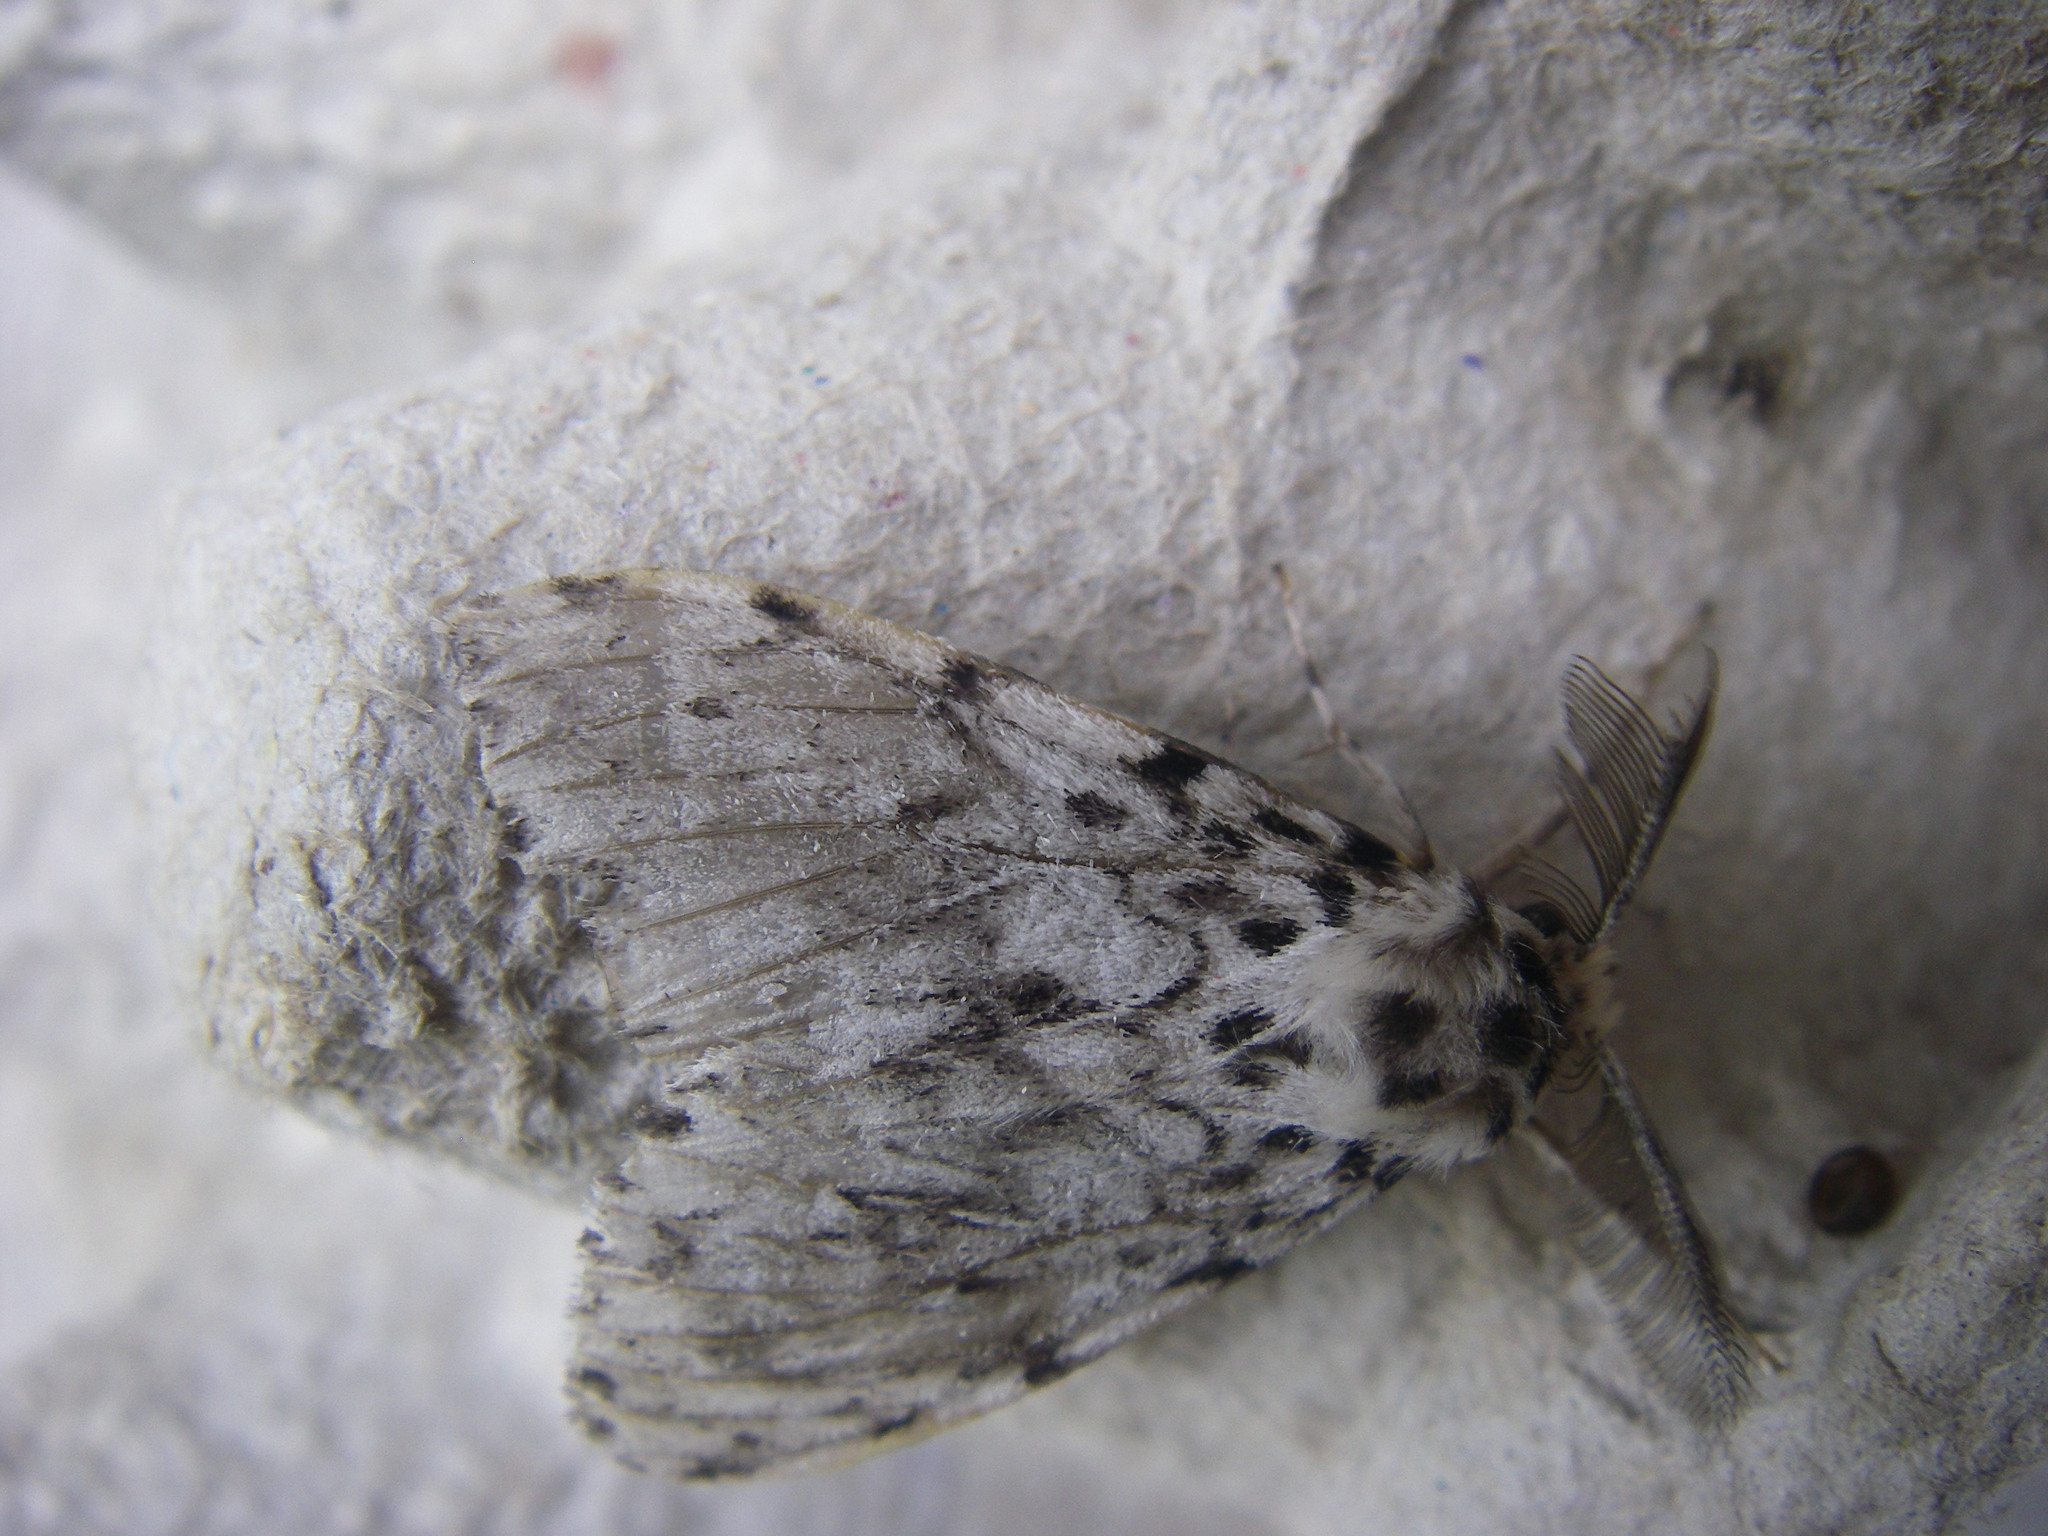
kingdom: Animalia
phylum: Arthropoda
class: Insecta
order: Lepidoptera
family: Erebidae
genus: Lymantria
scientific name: Lymantria monacha
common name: Black arches
